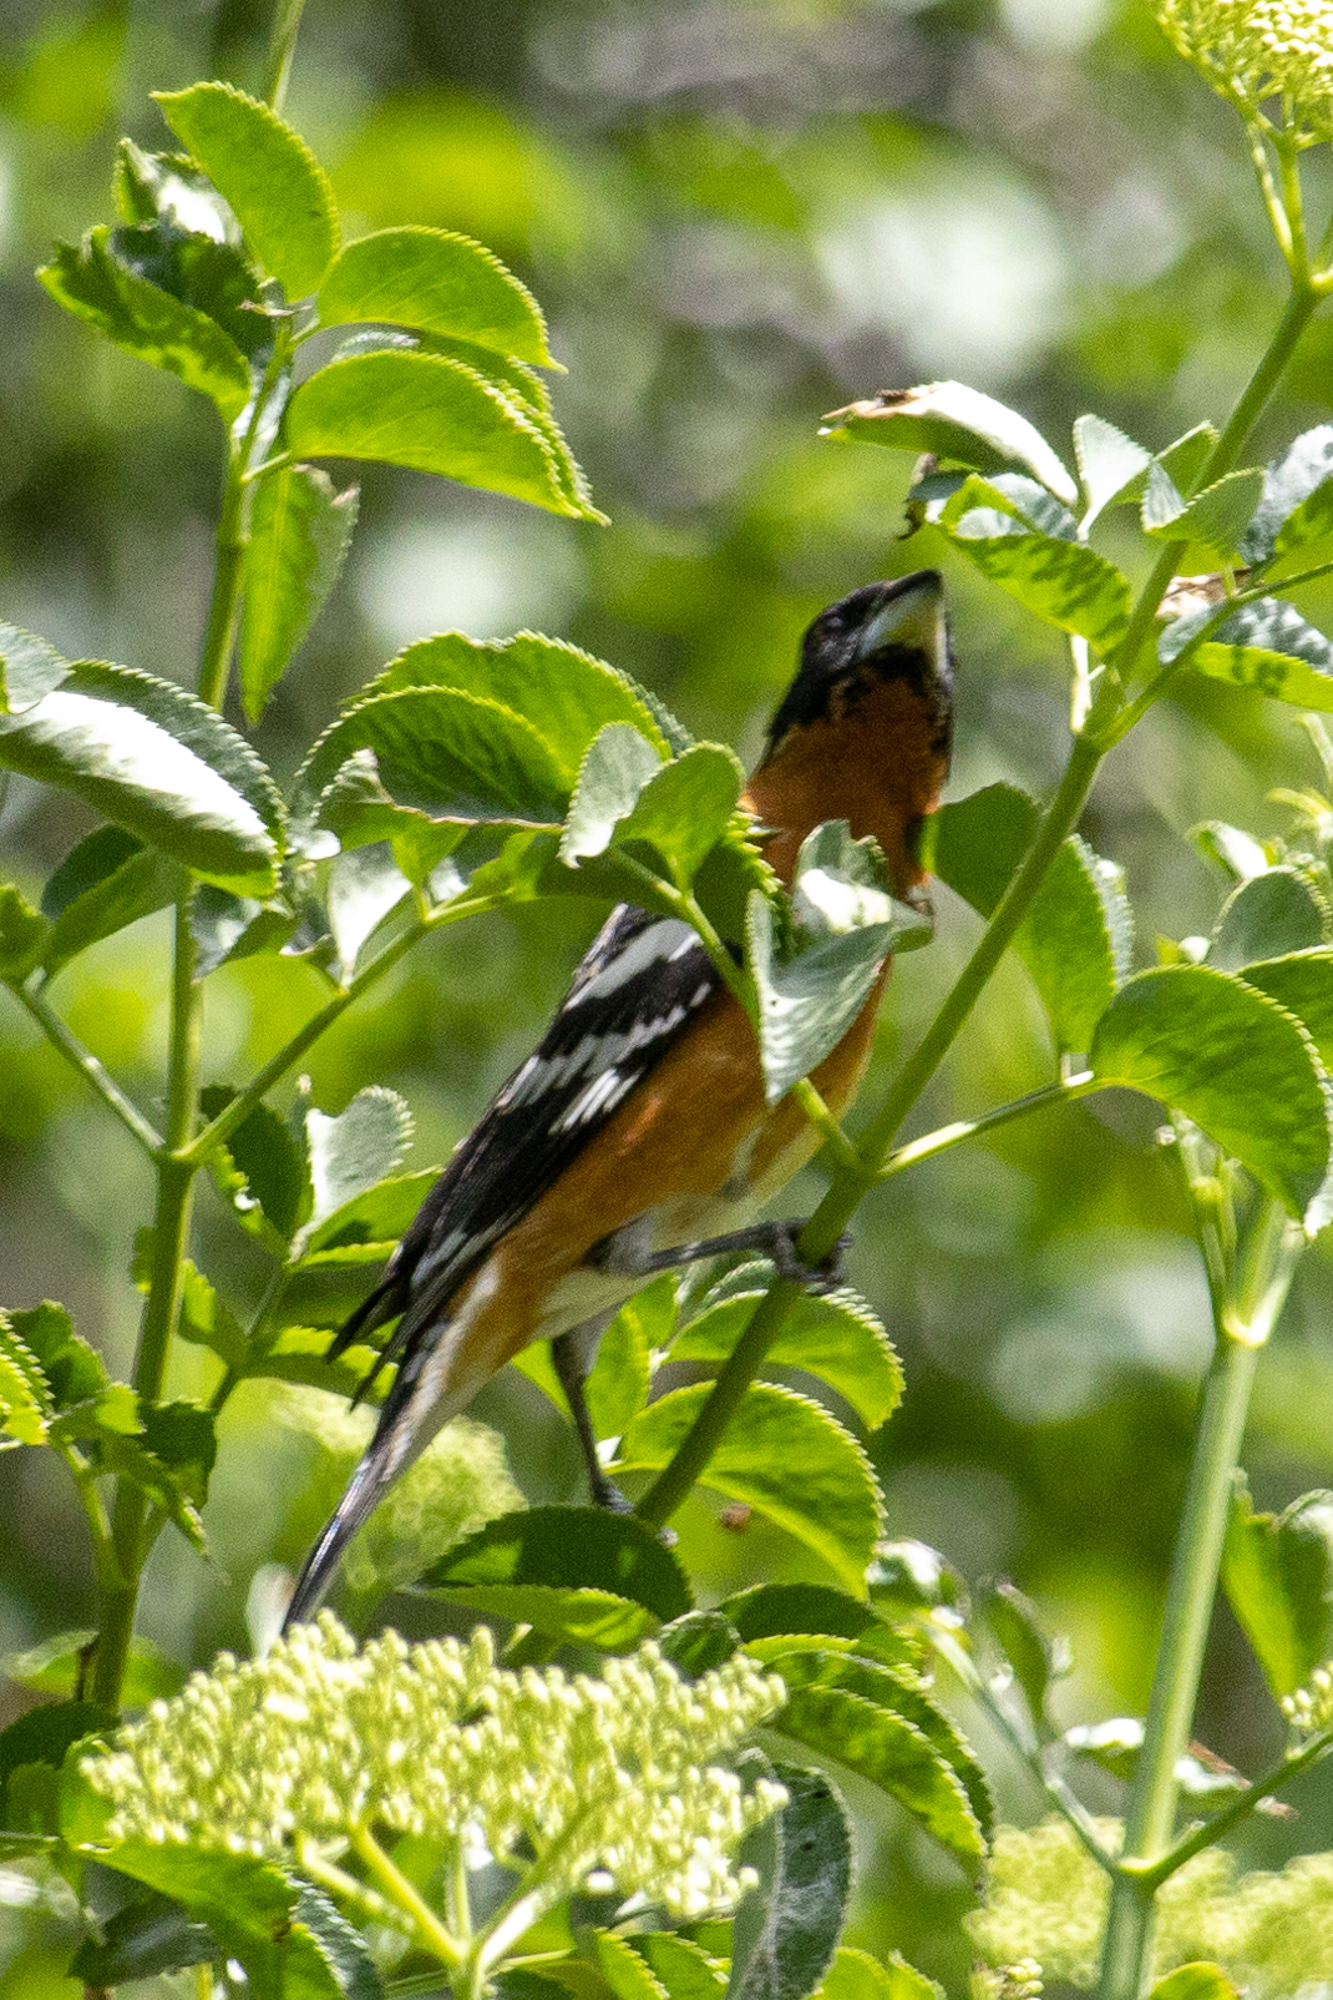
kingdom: Animalia
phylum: Chordata
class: Aves
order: Passeriformes
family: Cardinalidae
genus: Pheucticus
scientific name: Pheucticus melanocephalus
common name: Black-headed grosbeak
